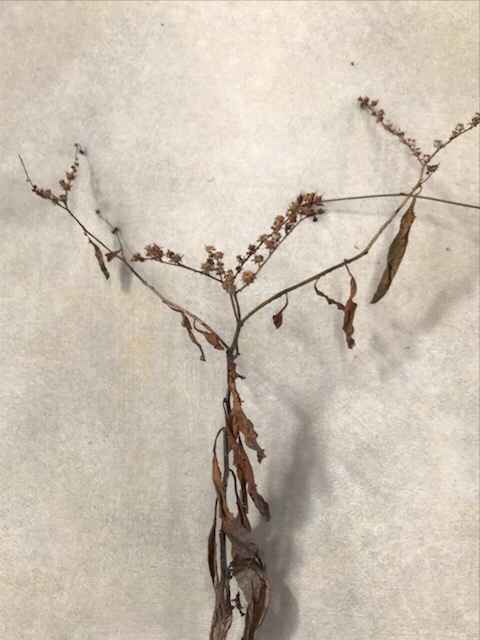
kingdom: Plantae
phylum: Tracheophyta
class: Magnoliopsida
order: Saxifragales
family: Penthoraceae
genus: Penthorum
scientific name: Penthorum sedoides
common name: Ditch stonecrop
